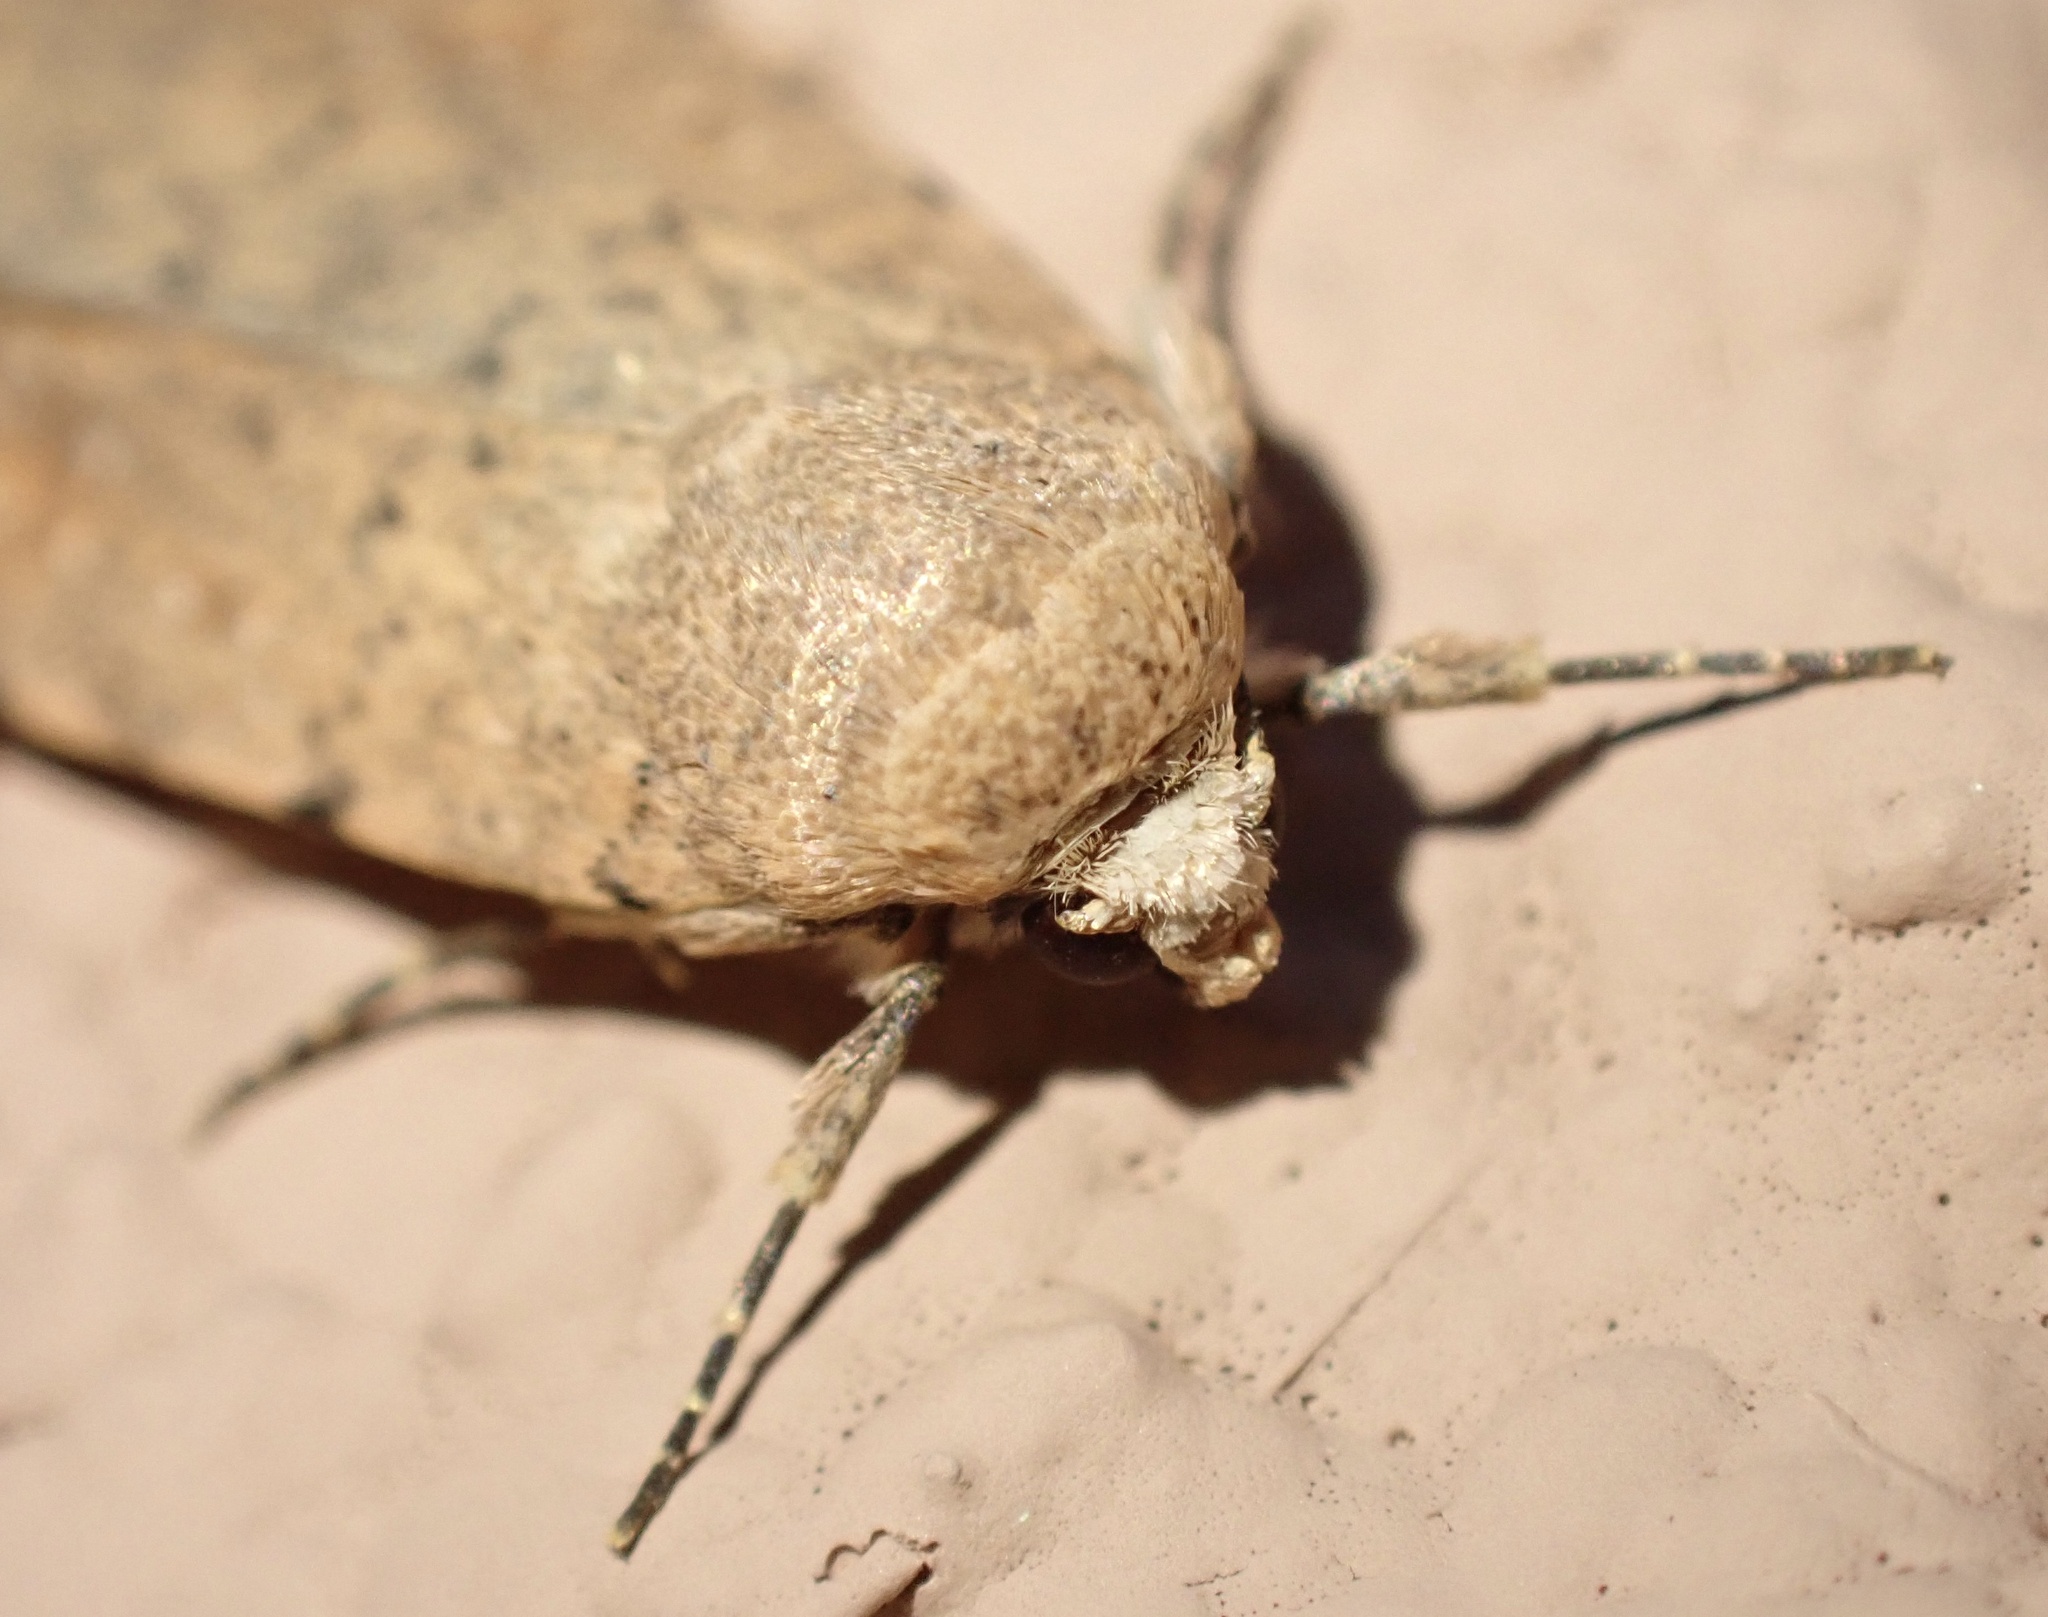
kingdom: Animalia
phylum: Arthropoda
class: Insecta
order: Lepidoptera
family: Noctuidae
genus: Caradrina
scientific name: Caradrina flava
